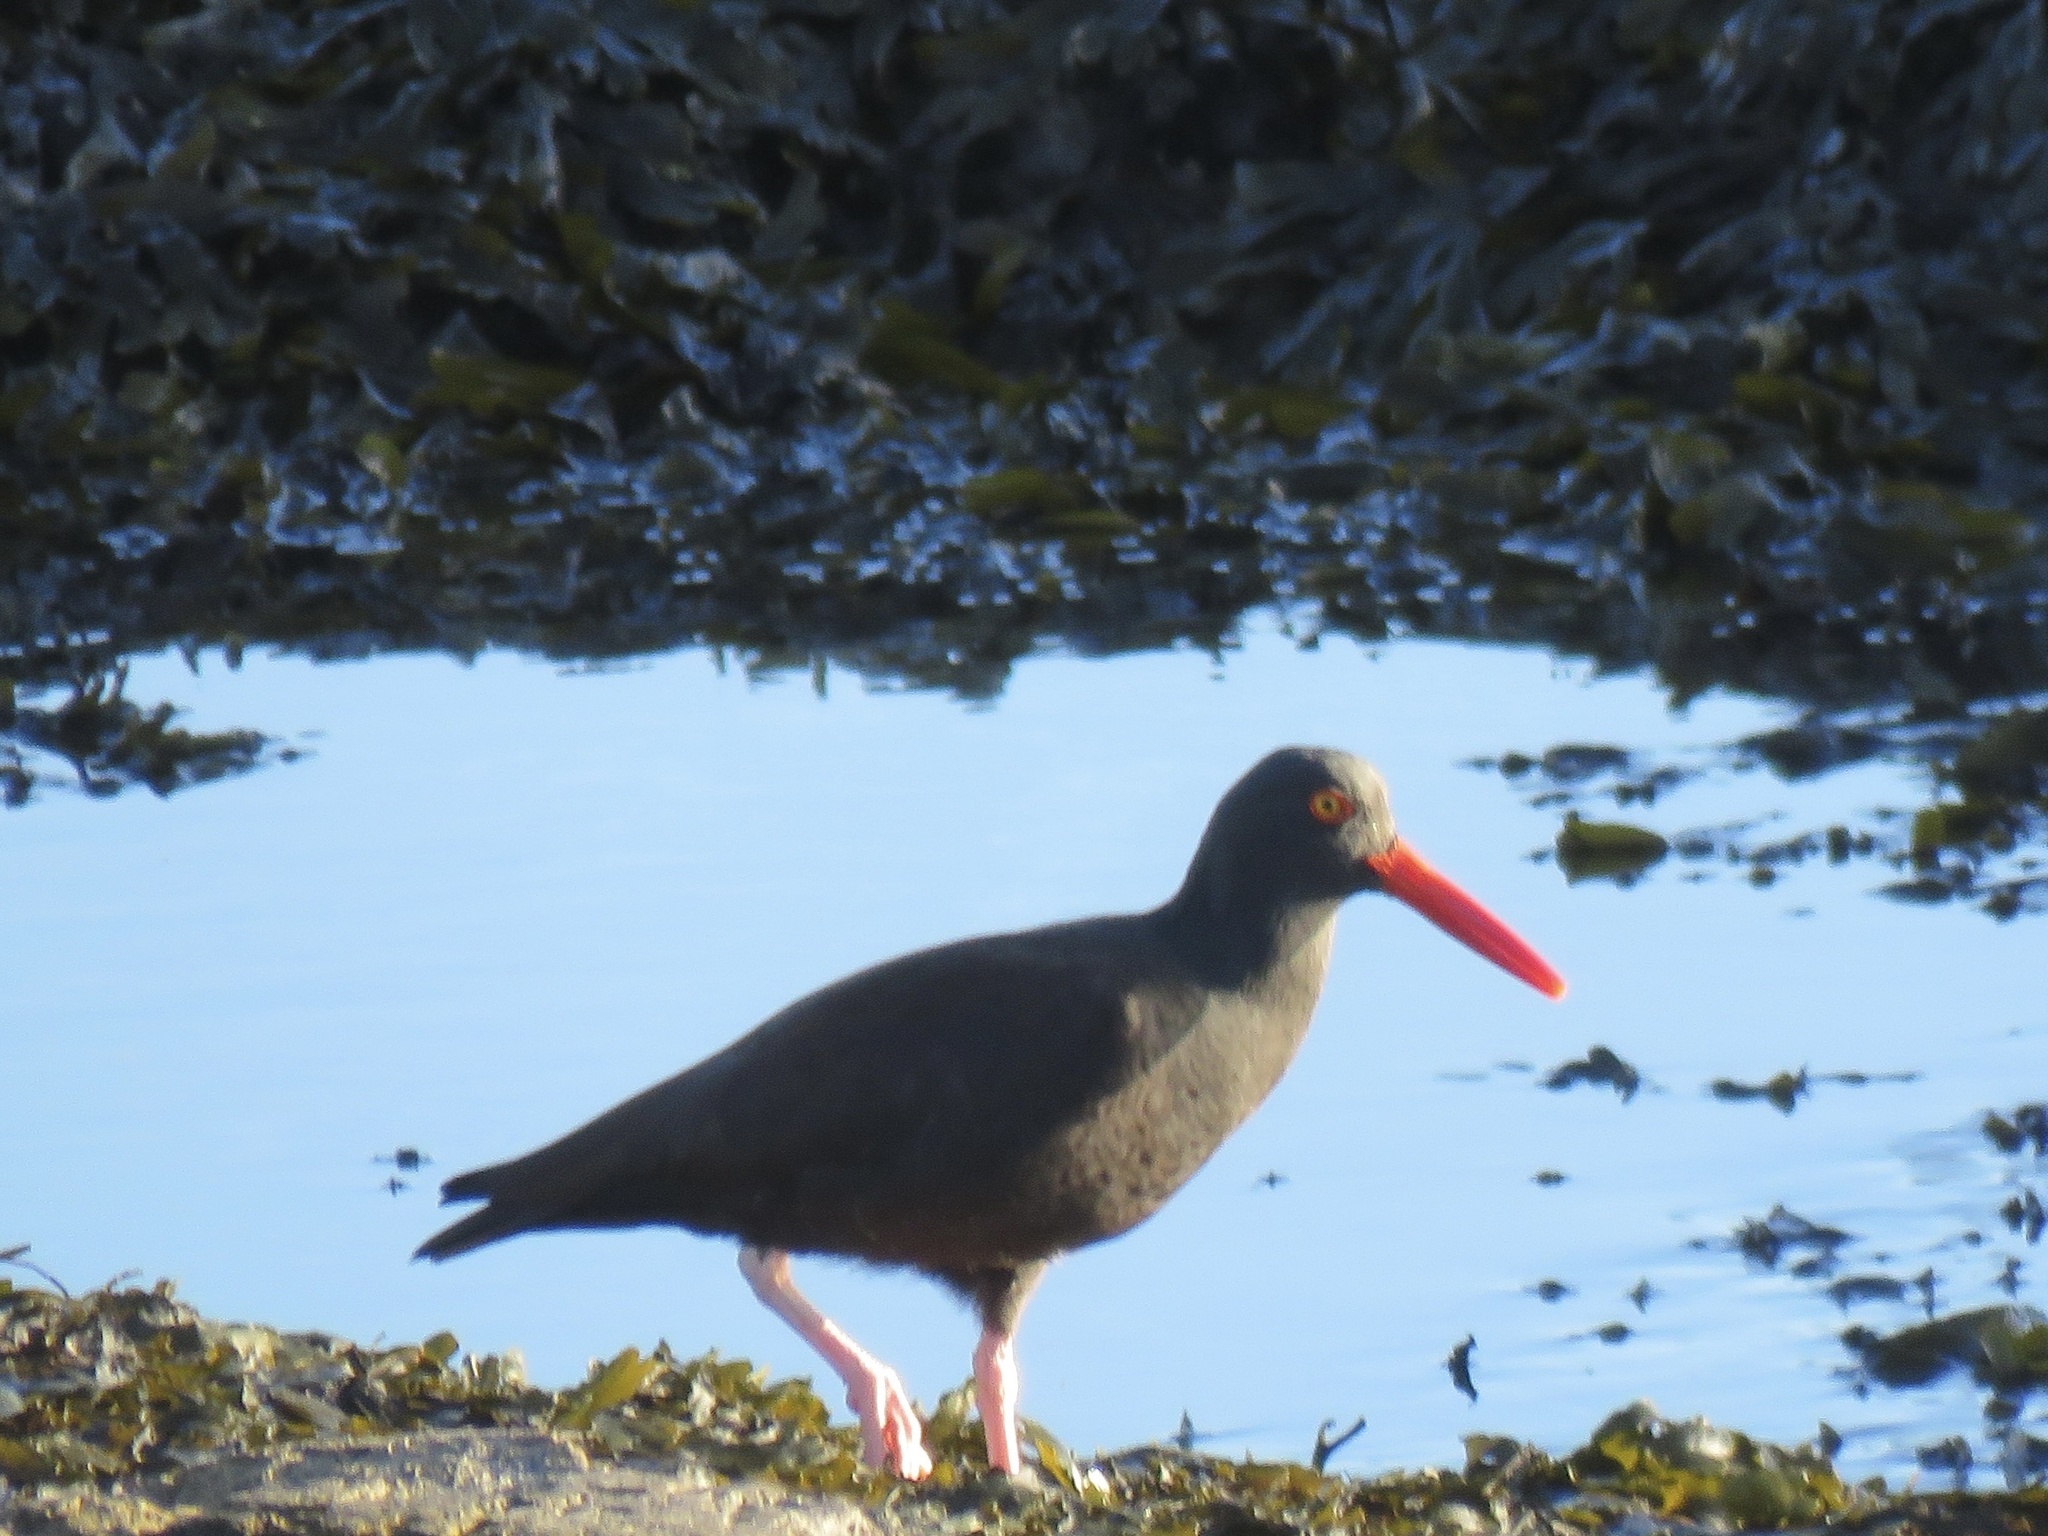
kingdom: Animalia
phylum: Chordata
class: Aves
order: Charadriiformes
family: Haematopodidae
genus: Haematopus
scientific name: Haematopus bachmani
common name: Black oystercatcher
